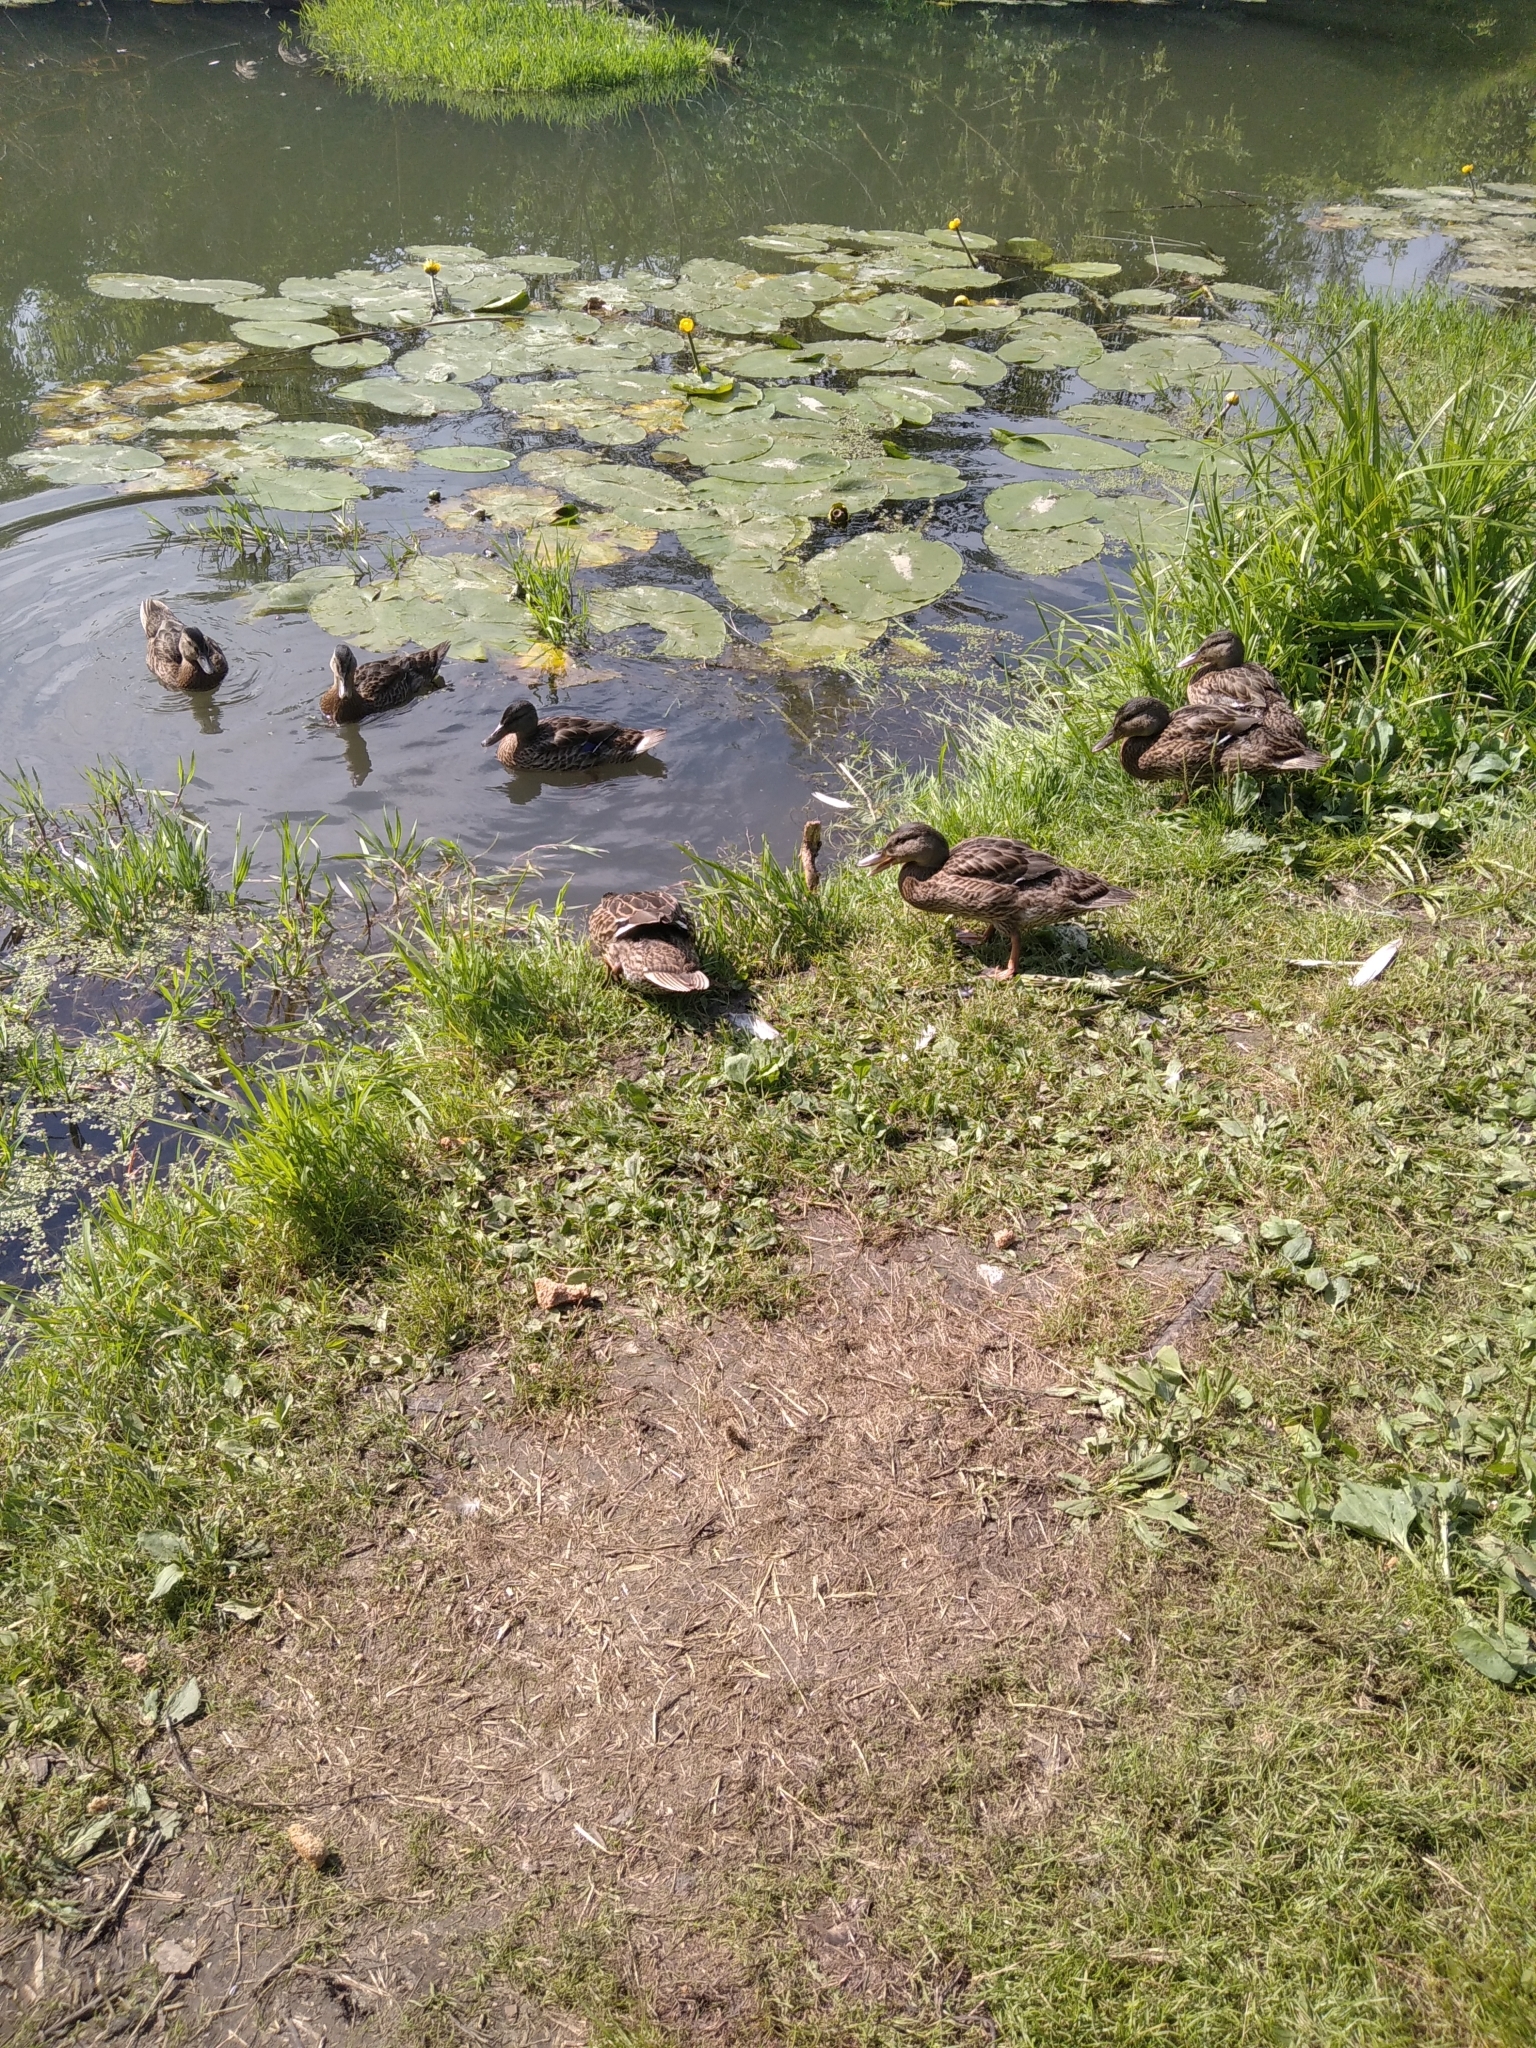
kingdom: Animalia
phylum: Chordata
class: Aves
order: Anseriformes
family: Anatidae
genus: Anas
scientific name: Anas platyrhynchos
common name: Mallard
